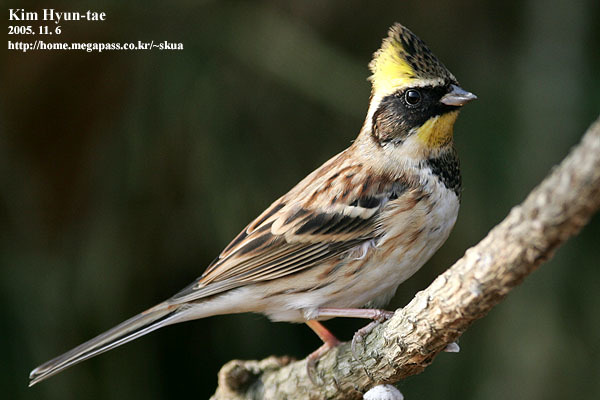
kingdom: Animalia
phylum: Chordata
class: Aves
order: Passeriformes
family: Emberizidae
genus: Emberiza
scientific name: Emberiza elegans
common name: Yellow-throated bunting
